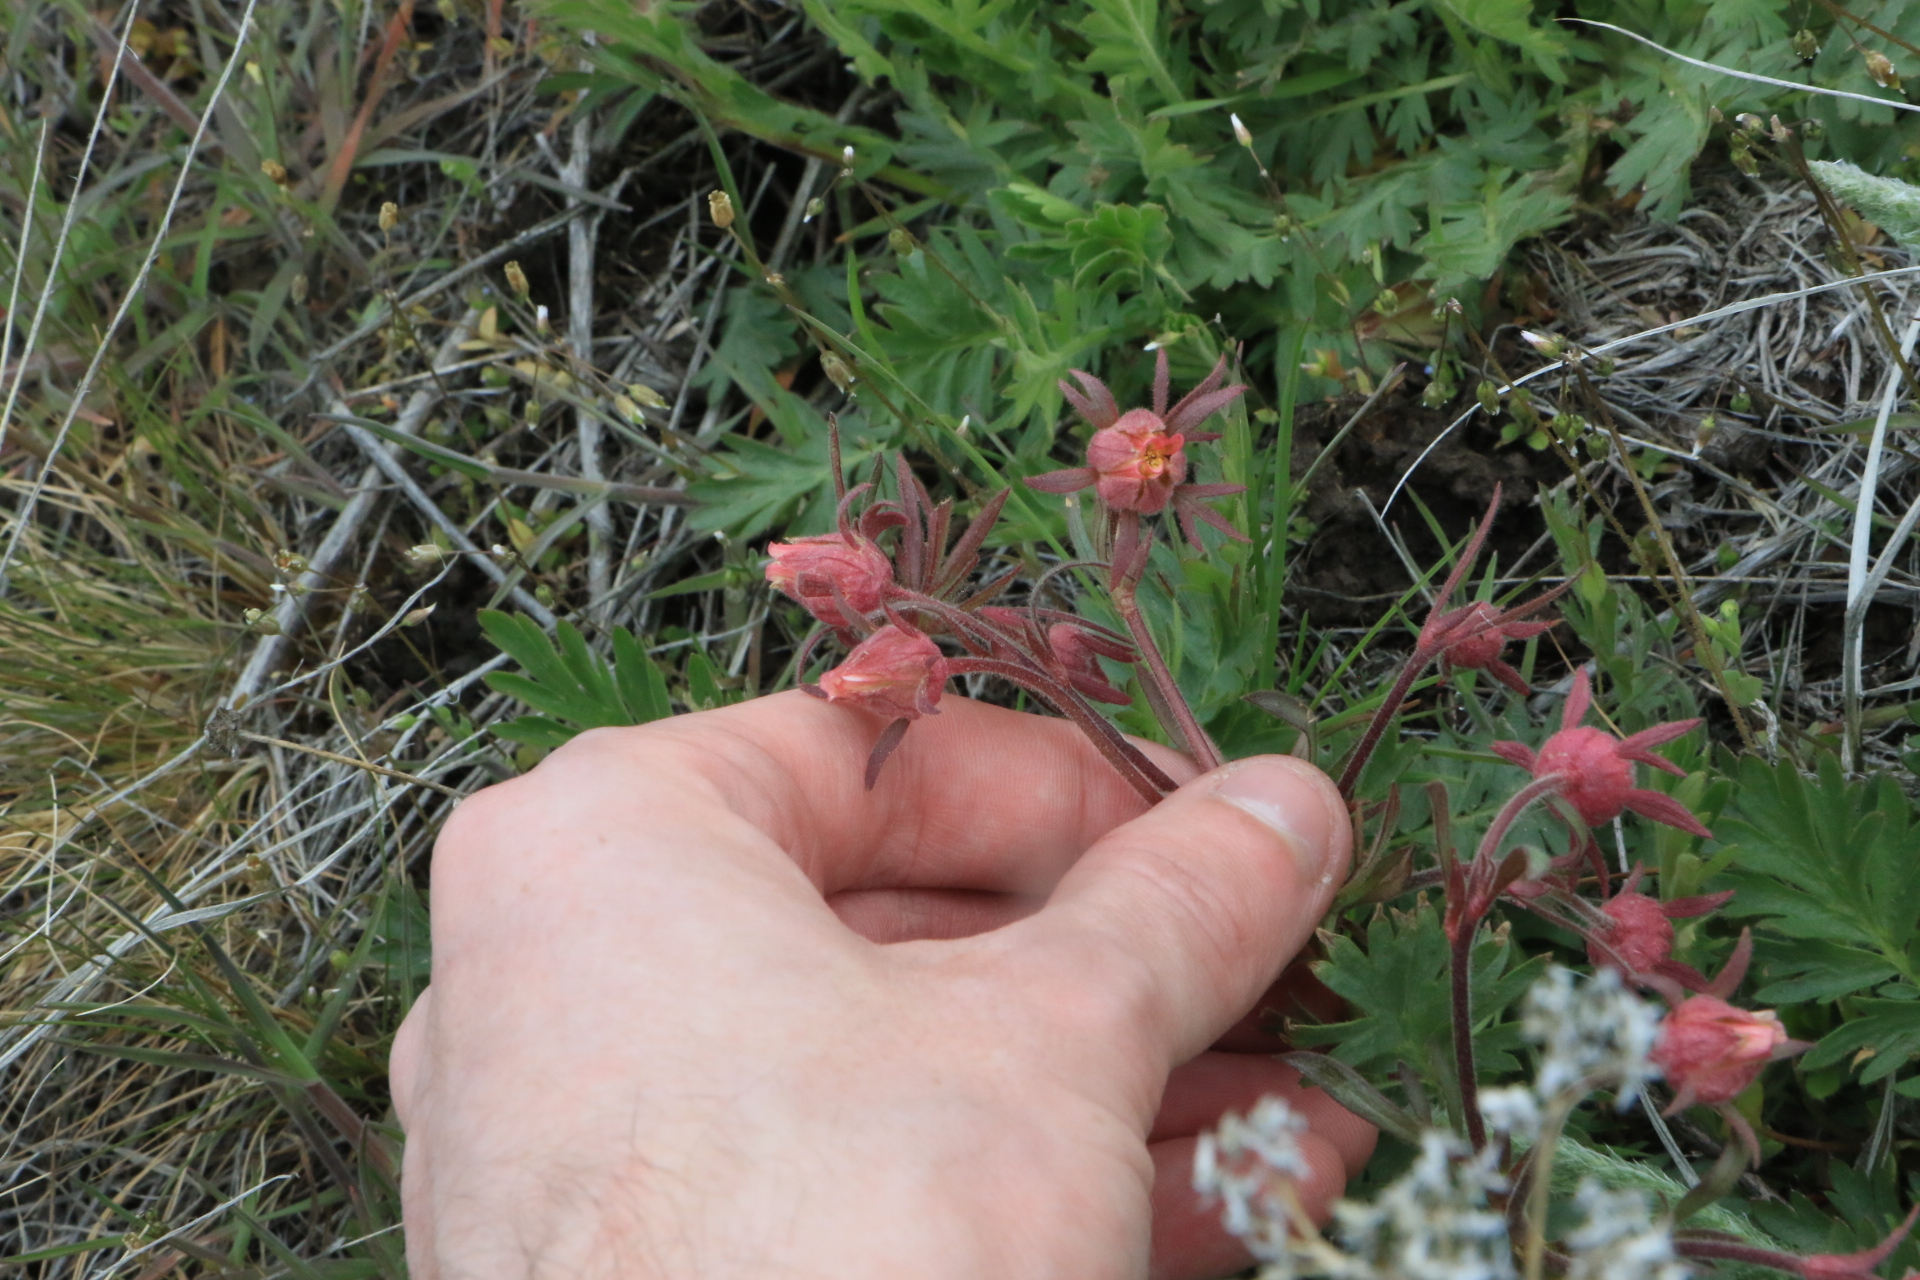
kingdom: Plantae
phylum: Tracheophyta
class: Magnoliopsida
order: Rosales
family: Rosaceae
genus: Geum
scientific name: Geum triflorum
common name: Old man's whiskers
